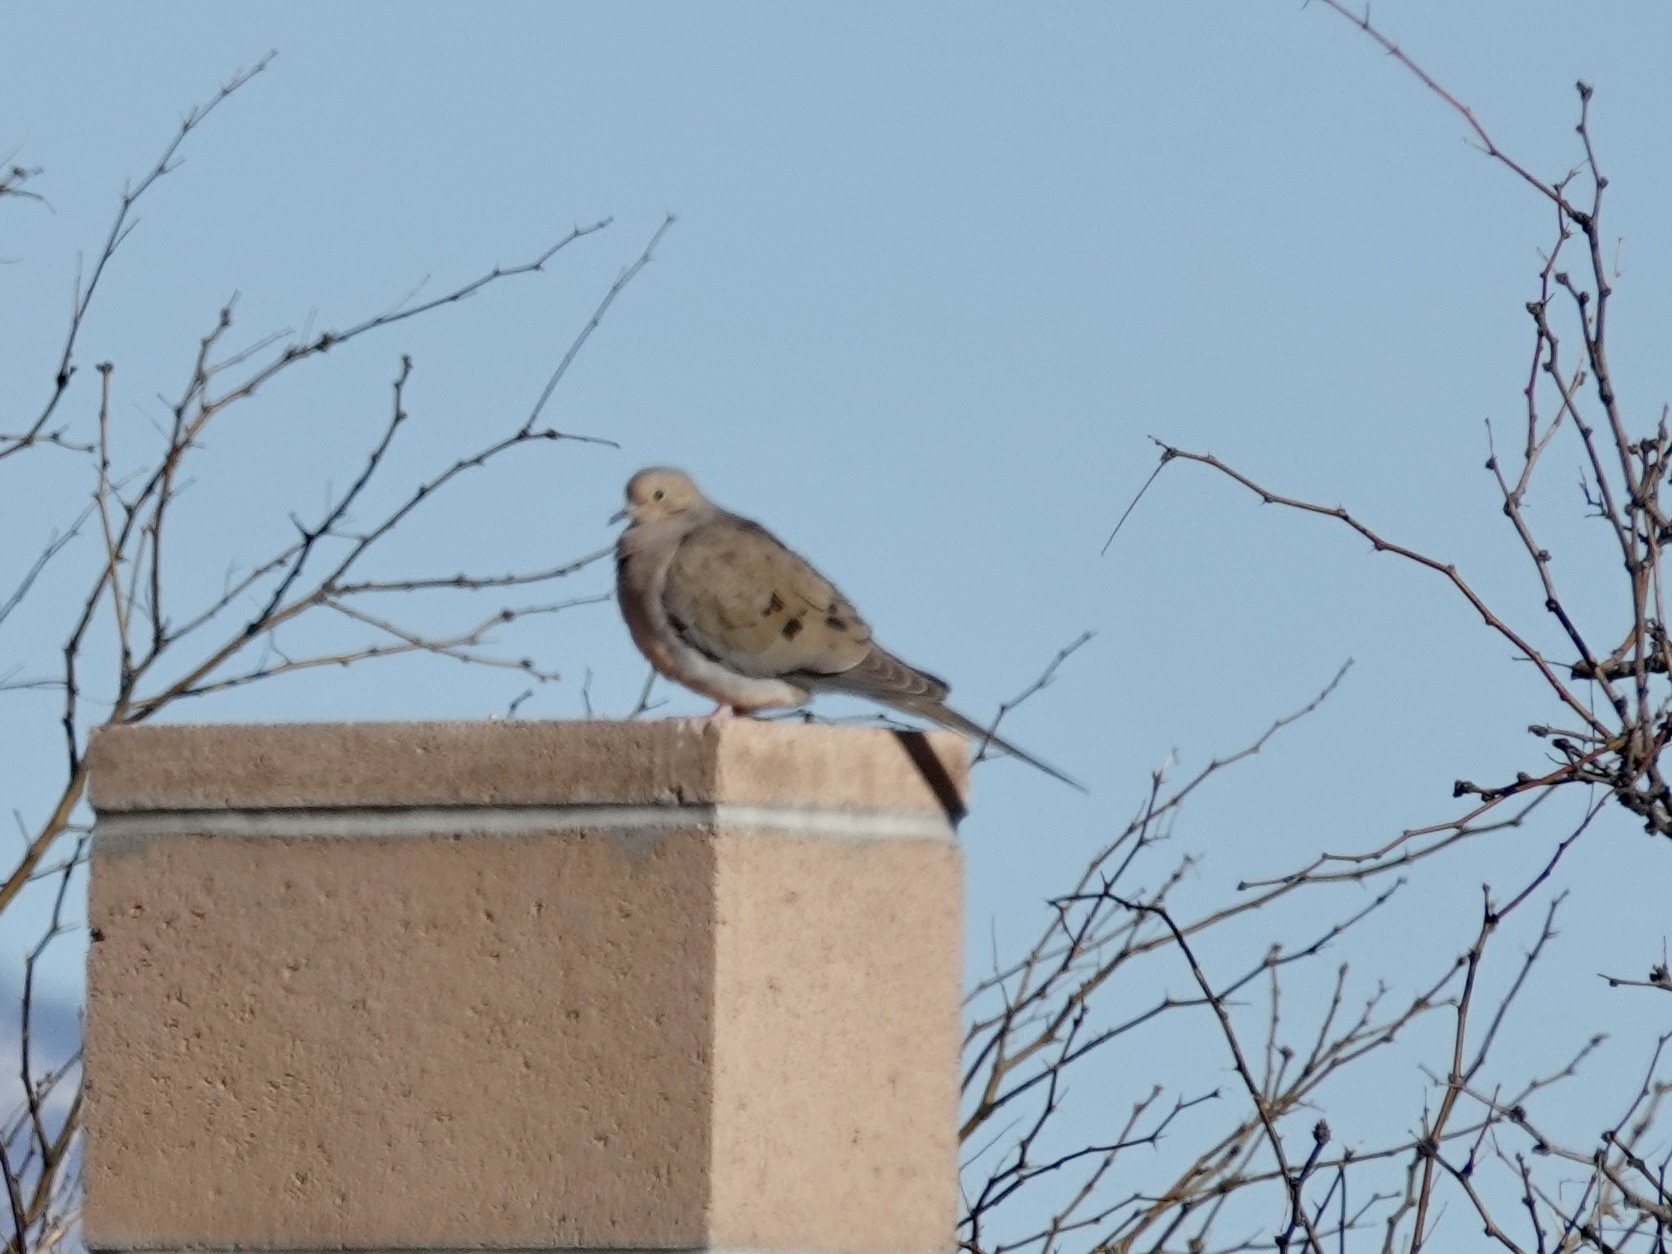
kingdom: Animalia
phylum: Chordata
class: Aves
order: Columbiformes
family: Columbidae
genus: Zenaida
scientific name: Zenaida macroura
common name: Mourning dove
